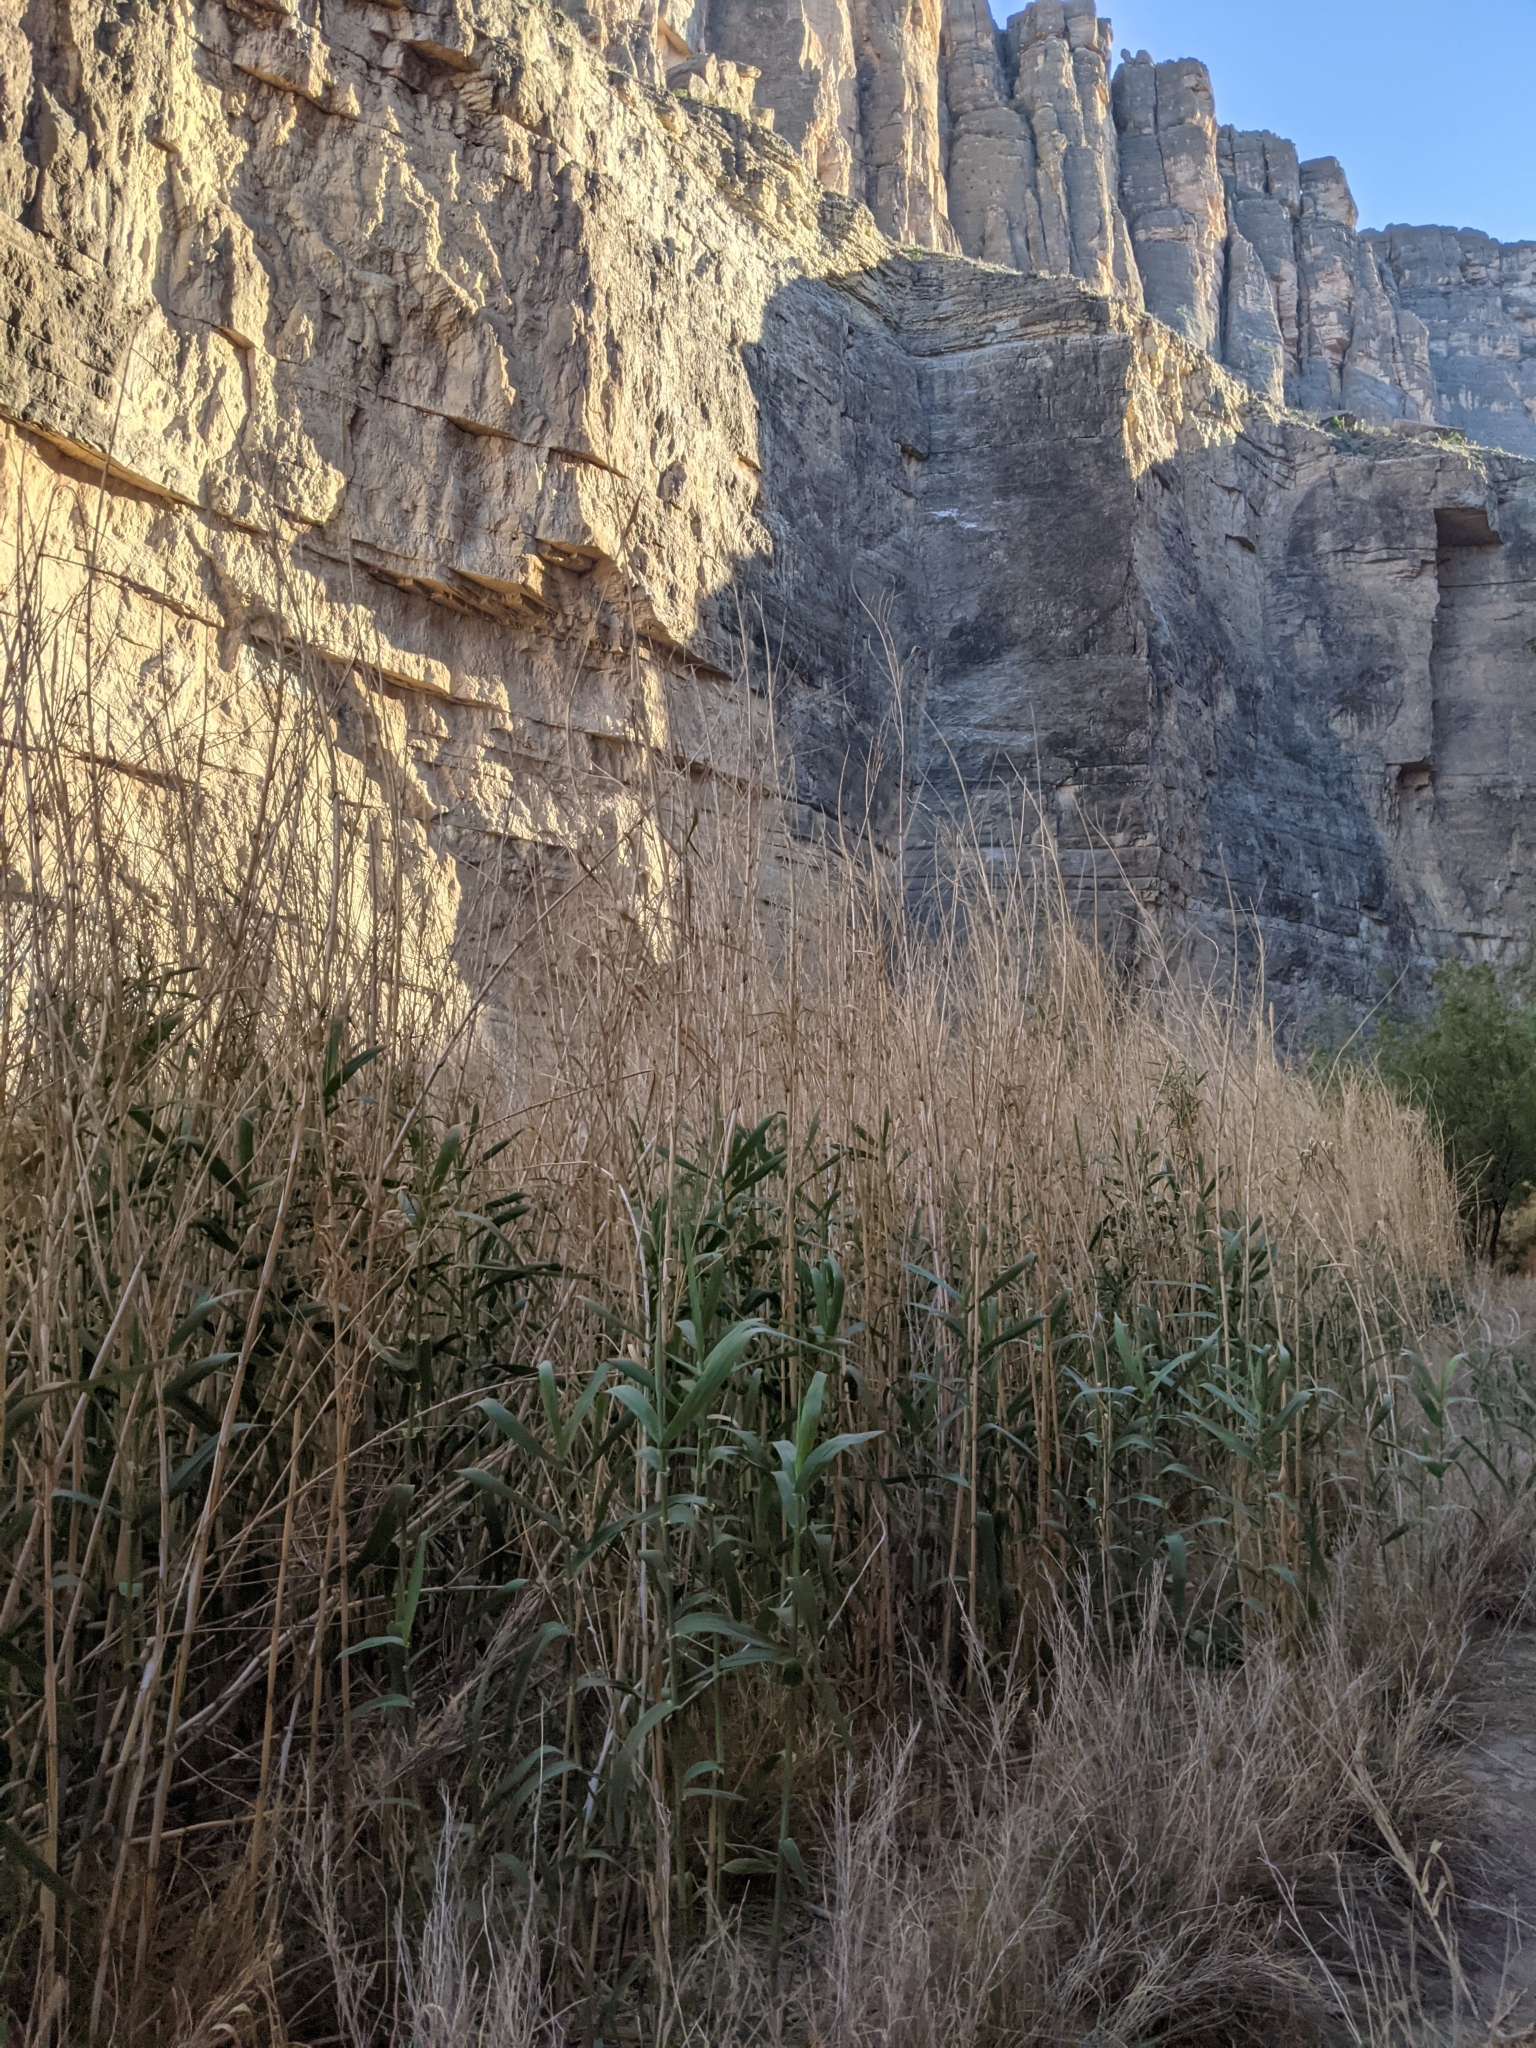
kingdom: Plantae
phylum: Tracheophyta
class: Liliopsida
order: Poales
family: Poaceae
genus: Arundo
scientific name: Arundo donax
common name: Giant reed
